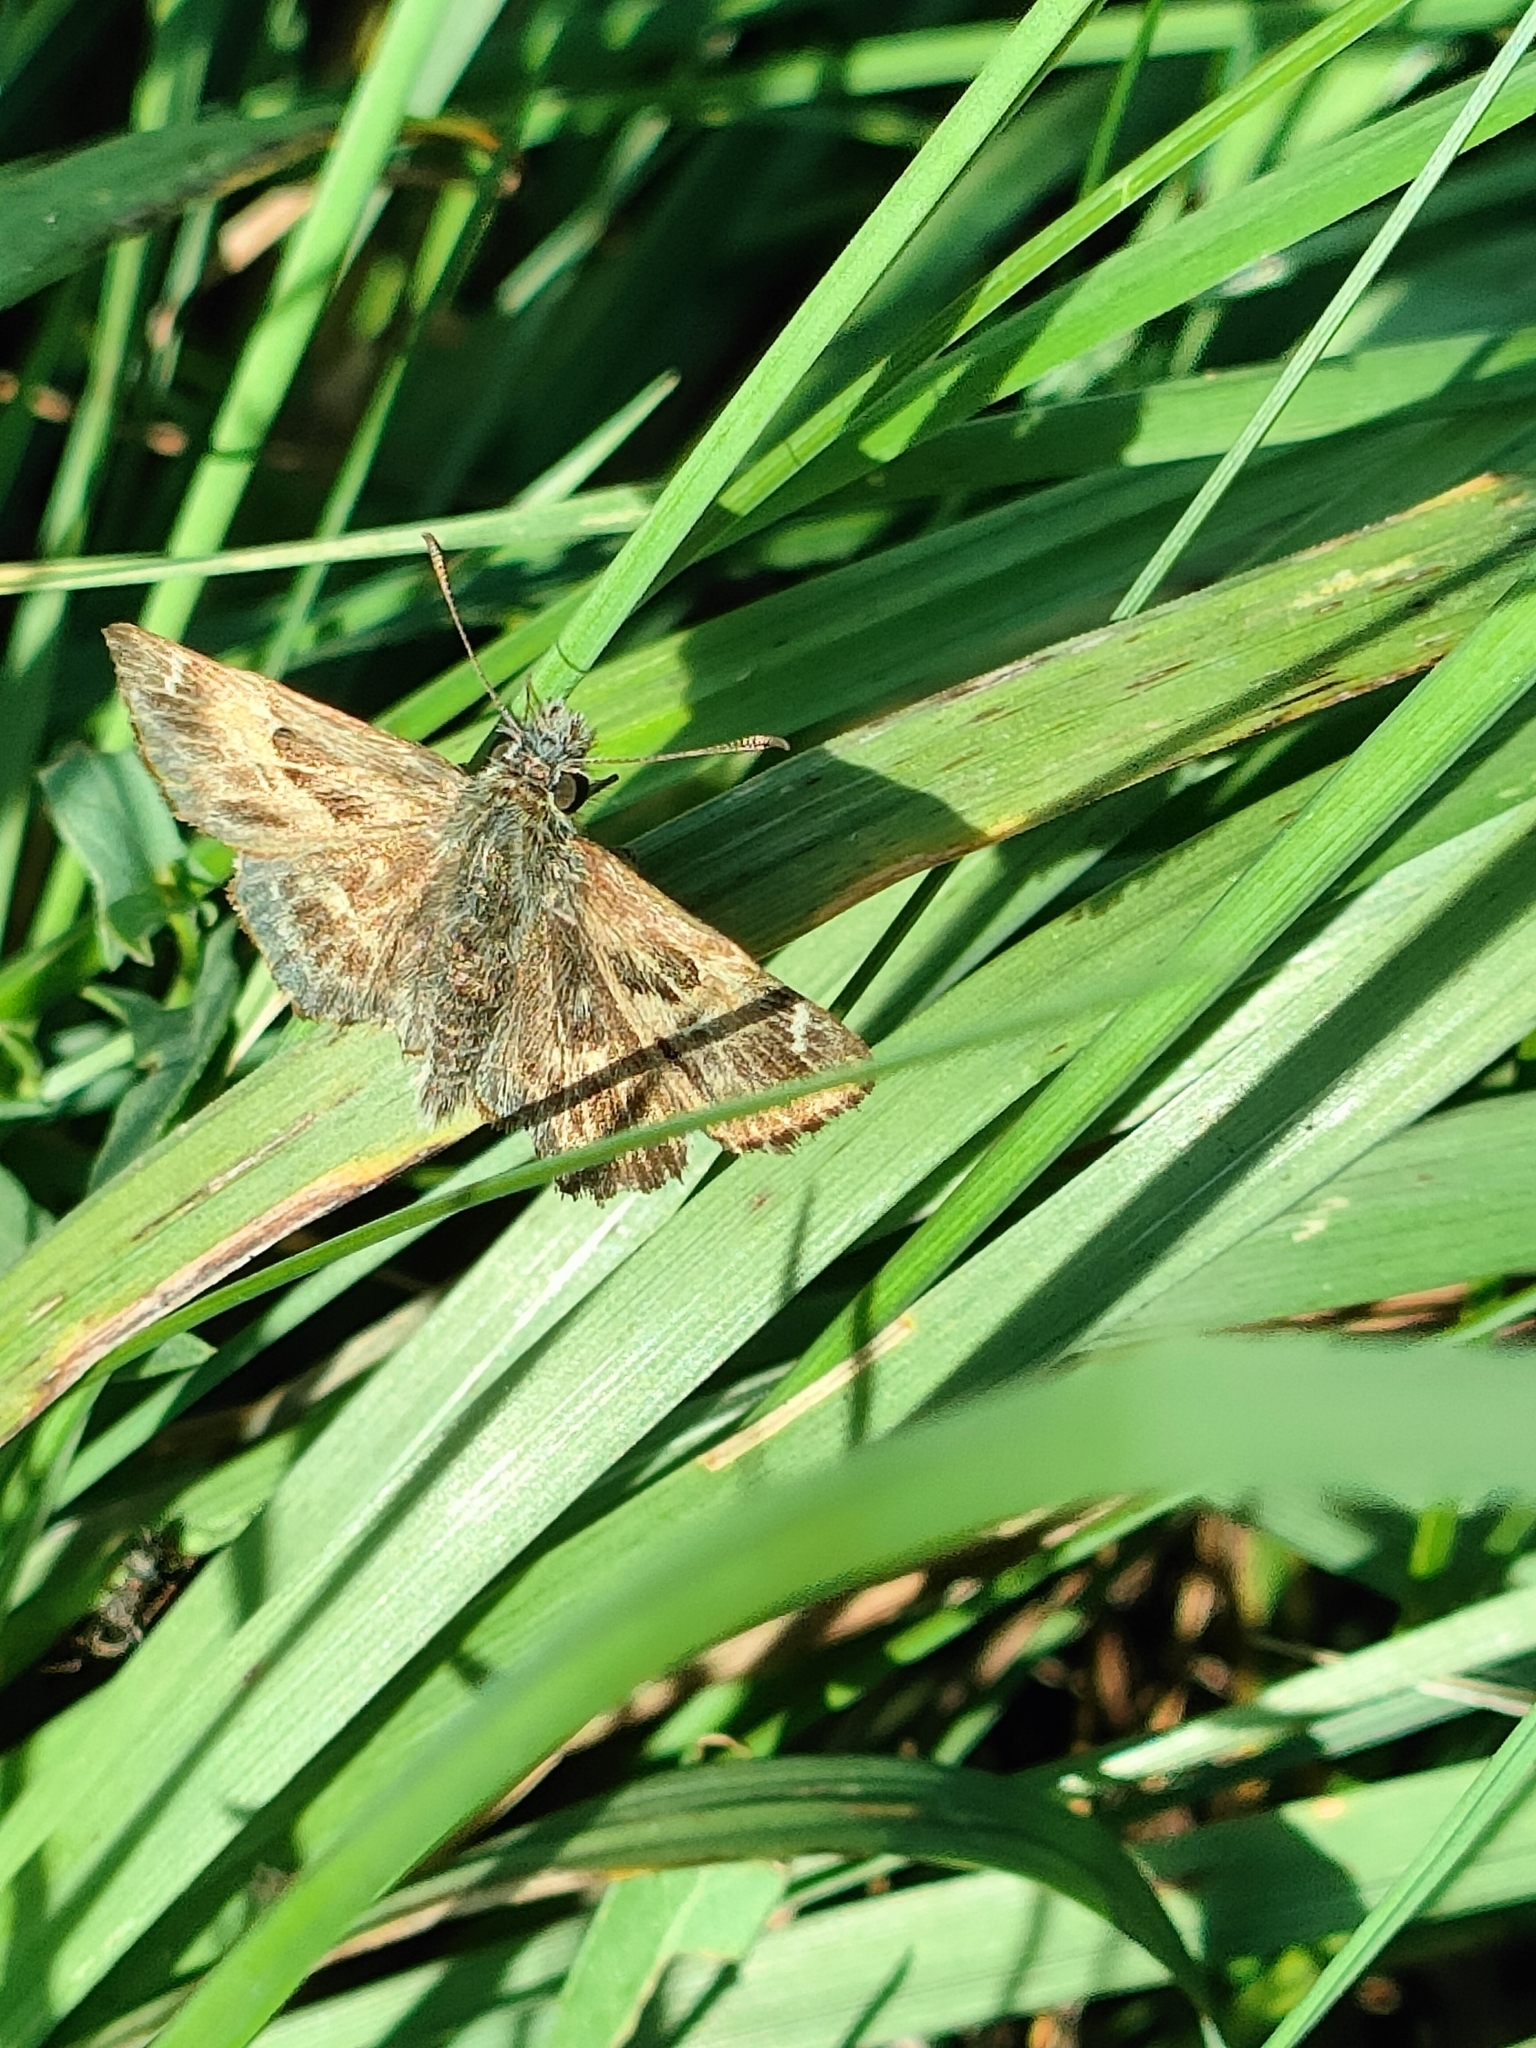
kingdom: Animalia
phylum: Arthropoda
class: Insecta
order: Lepidoptera
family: Hesperiidae
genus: Carcharodus
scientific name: Carcharodus alceae
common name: Mallow skipper
